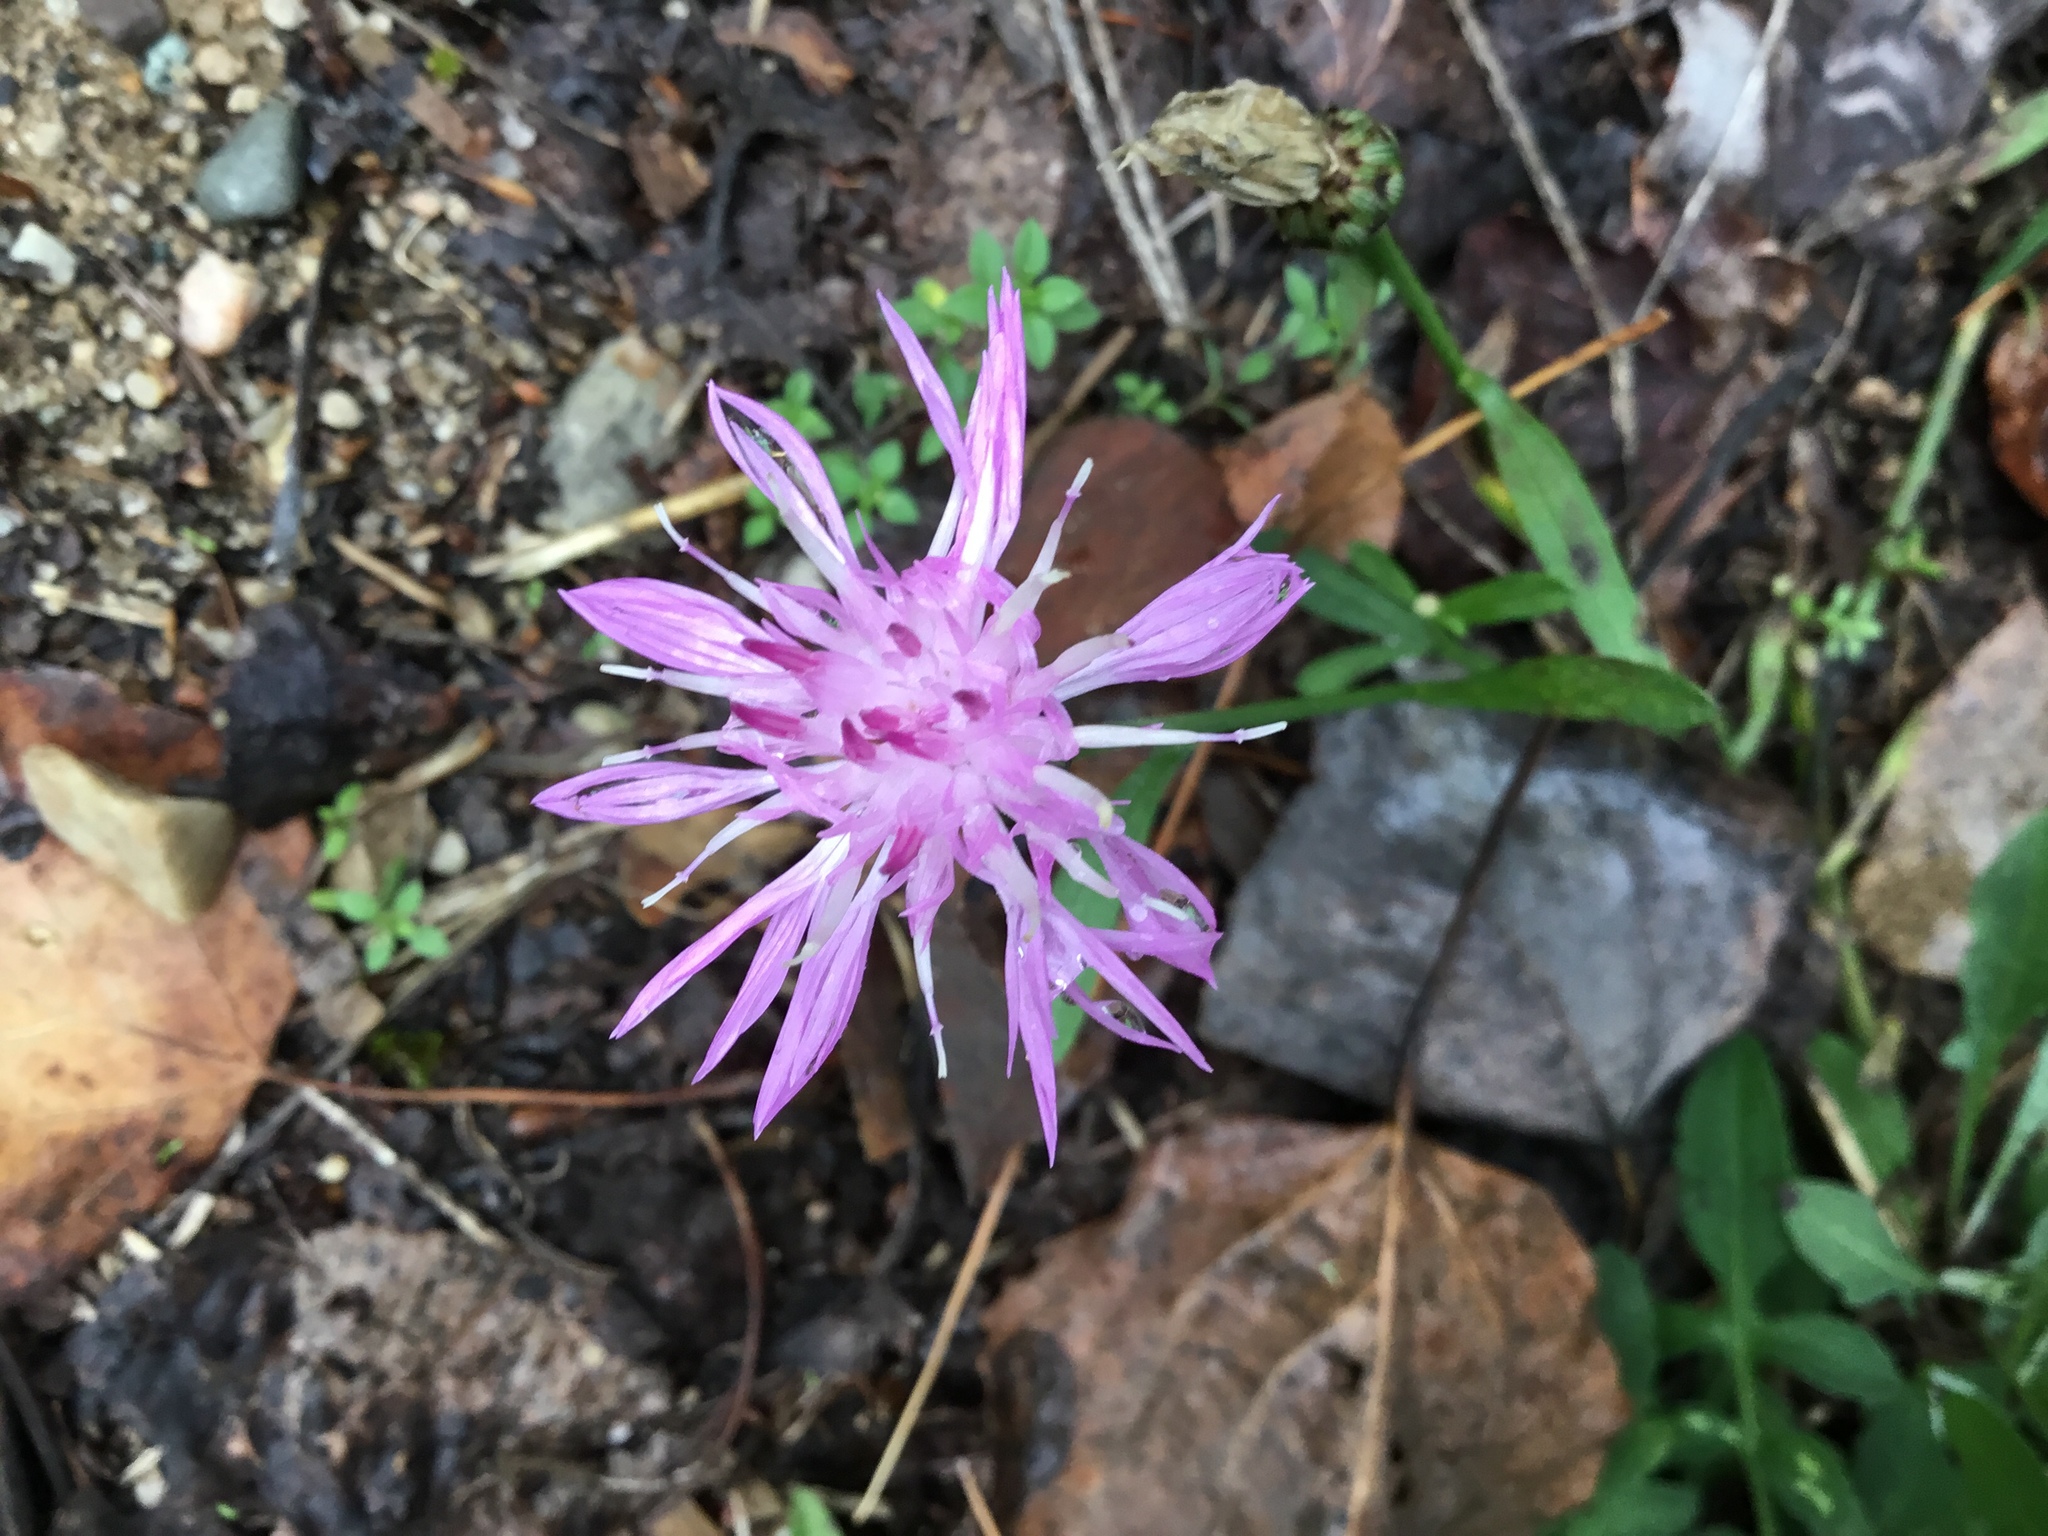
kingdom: Plantae
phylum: Tracheophyta
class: Magnoliopsida
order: Asterales
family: Asteraceae
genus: Centaurea
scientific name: Centaurea stoebe
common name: Spotted knapweed
